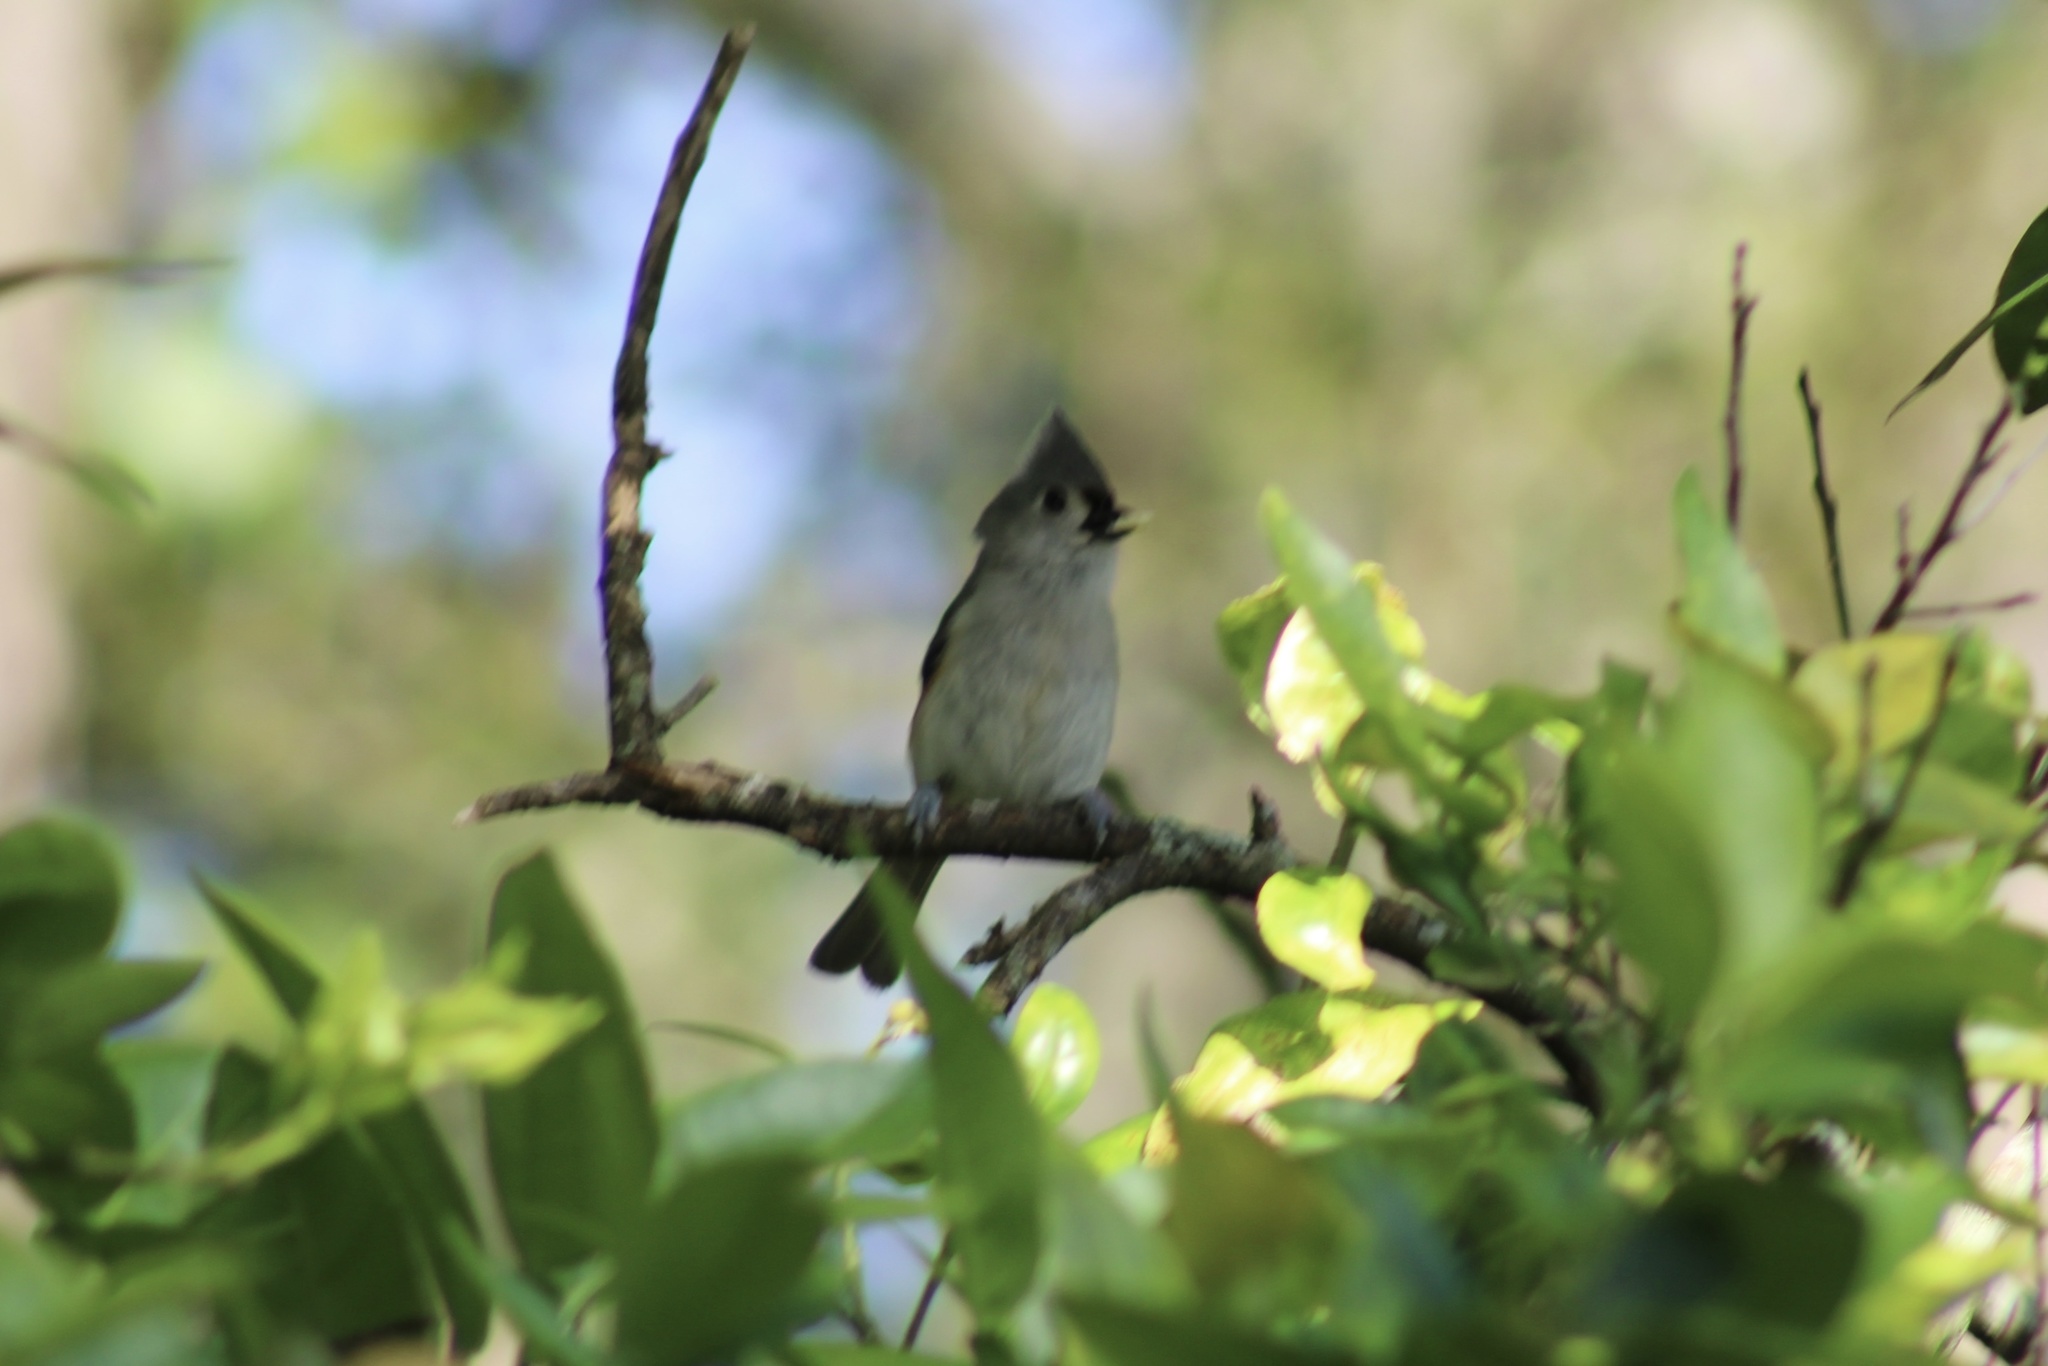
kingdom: Animalia
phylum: Chordata
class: Aves
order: Passeriformes
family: Paridae
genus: Baeolophus
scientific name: Baeolophus bicolor
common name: Tufted titmouse
